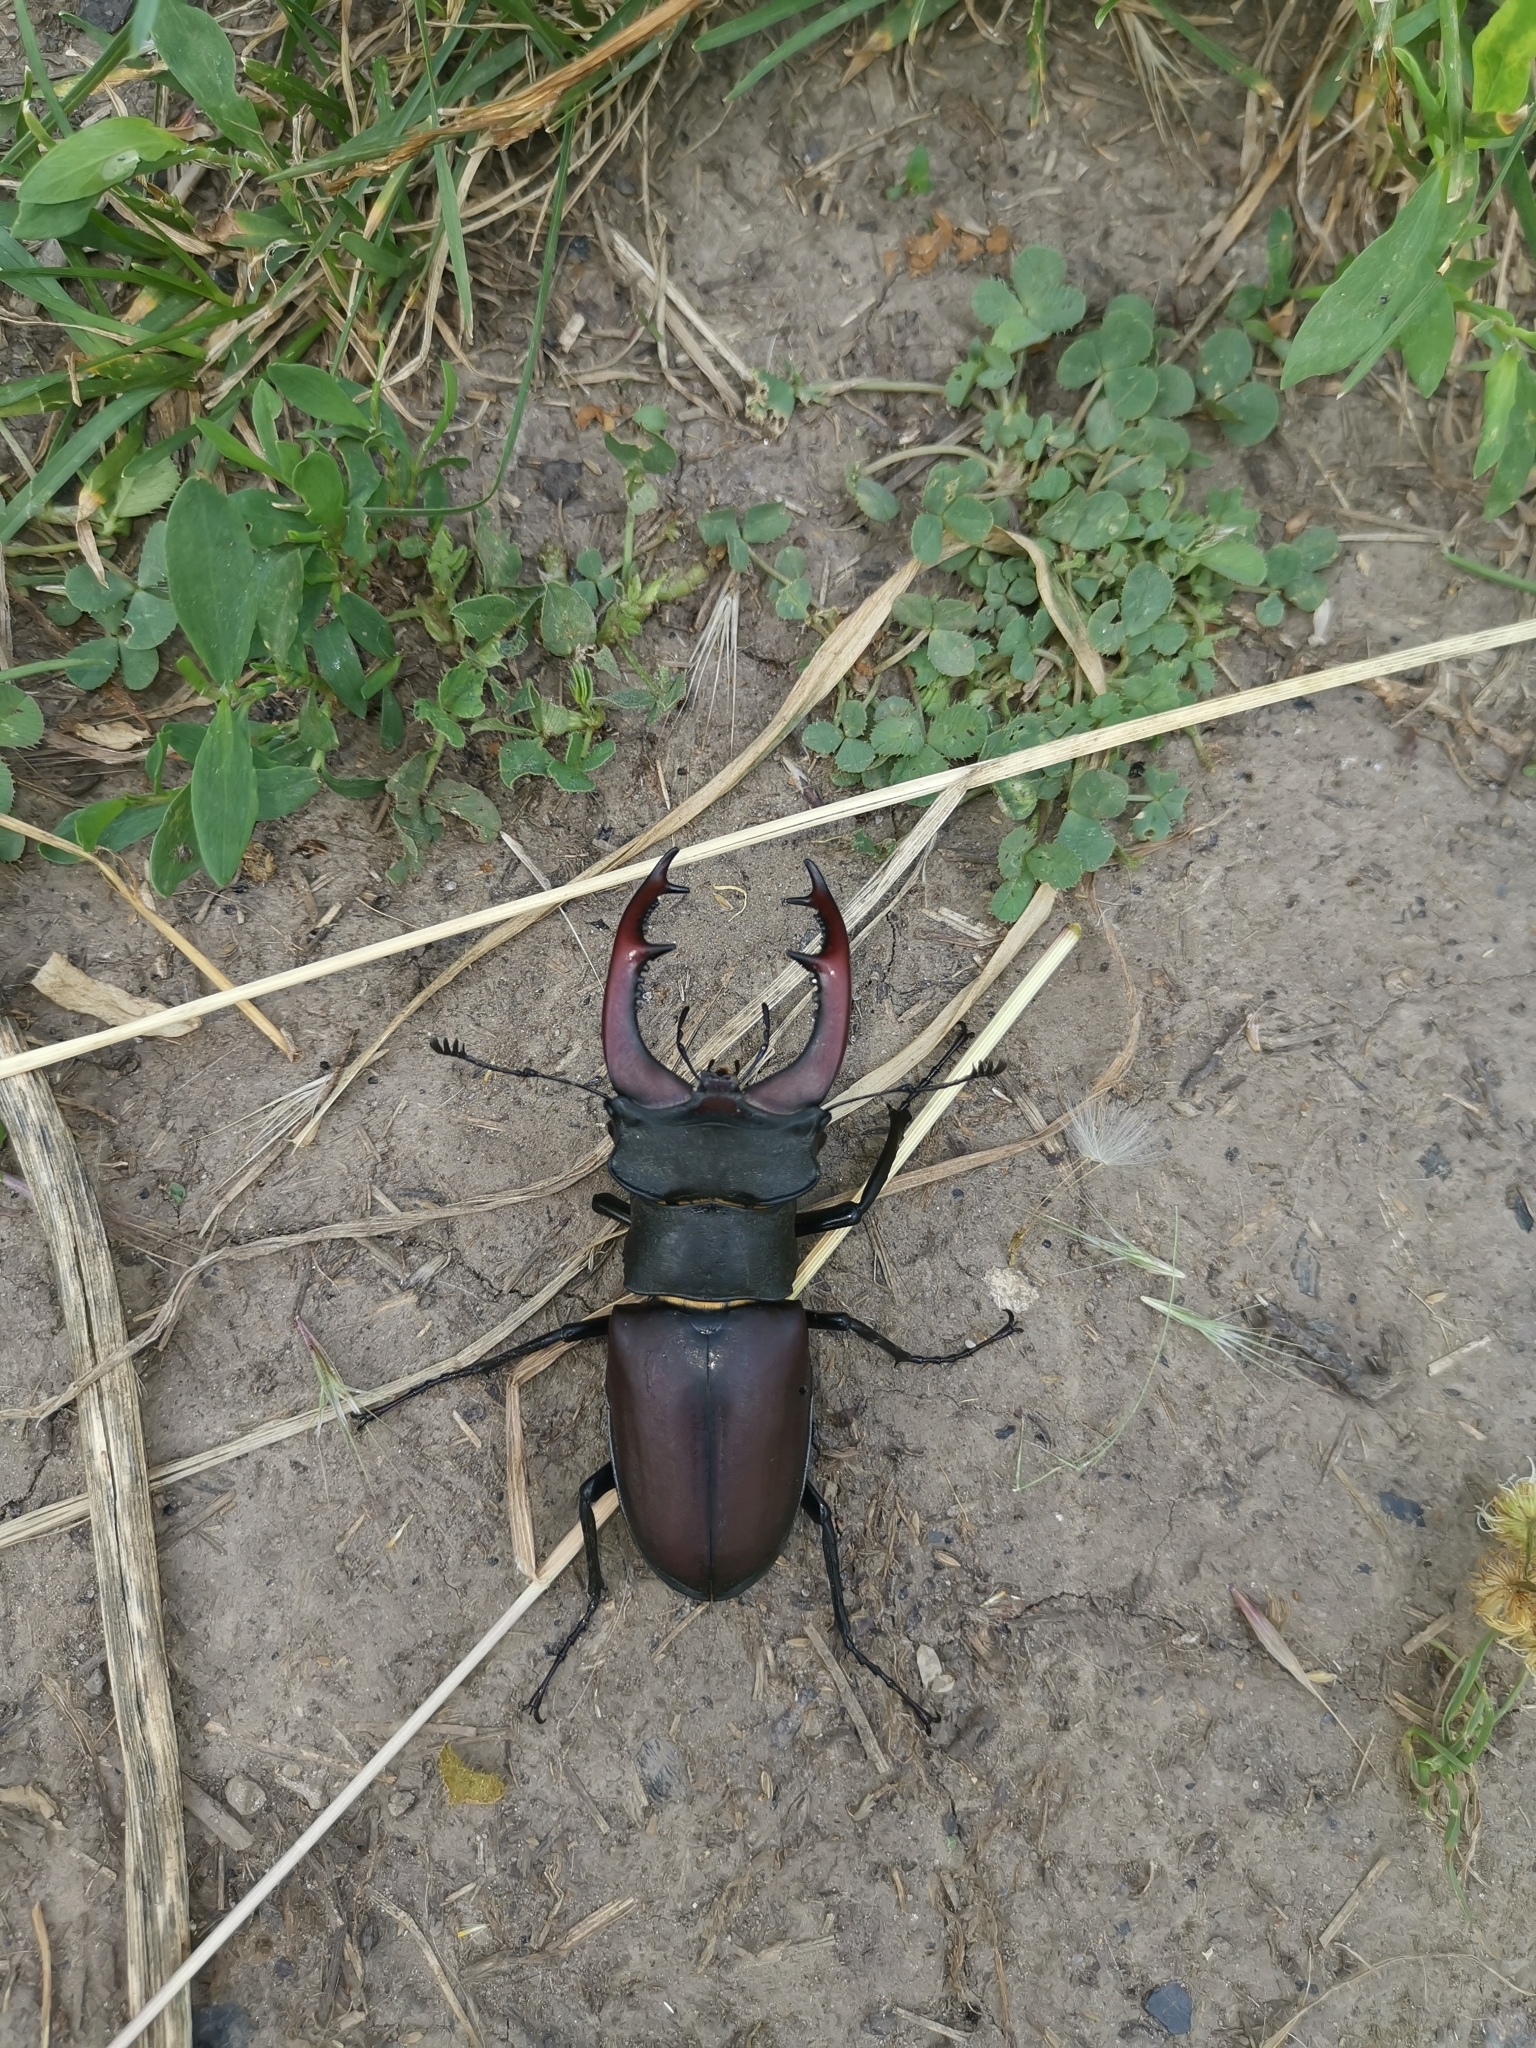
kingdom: Animalia
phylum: Arthropoda
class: Insecta
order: Coleoptera
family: Lucanidae
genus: Lucanus
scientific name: Lucanus cervus
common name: Stag beetle
